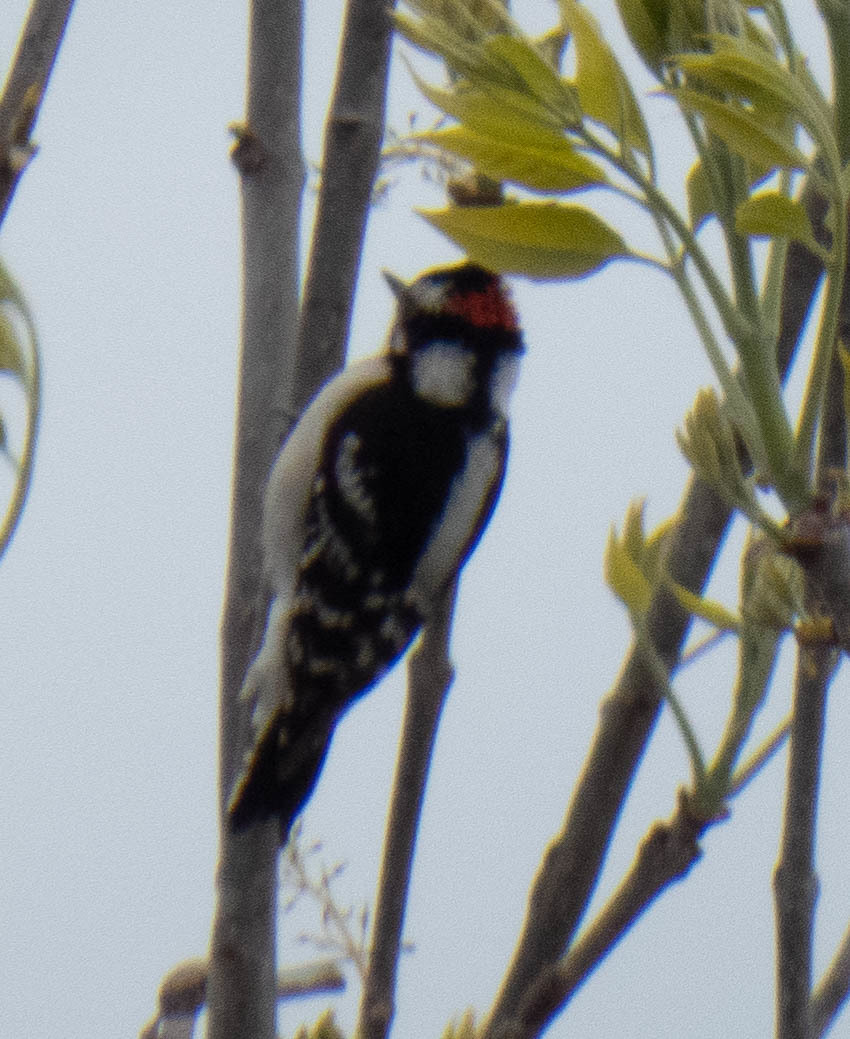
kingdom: Animalia
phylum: Chordata
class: Aves
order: Piciformes
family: Picidae
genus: Dryobates
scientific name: Dryobates pubescens
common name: Downy woodpecker
